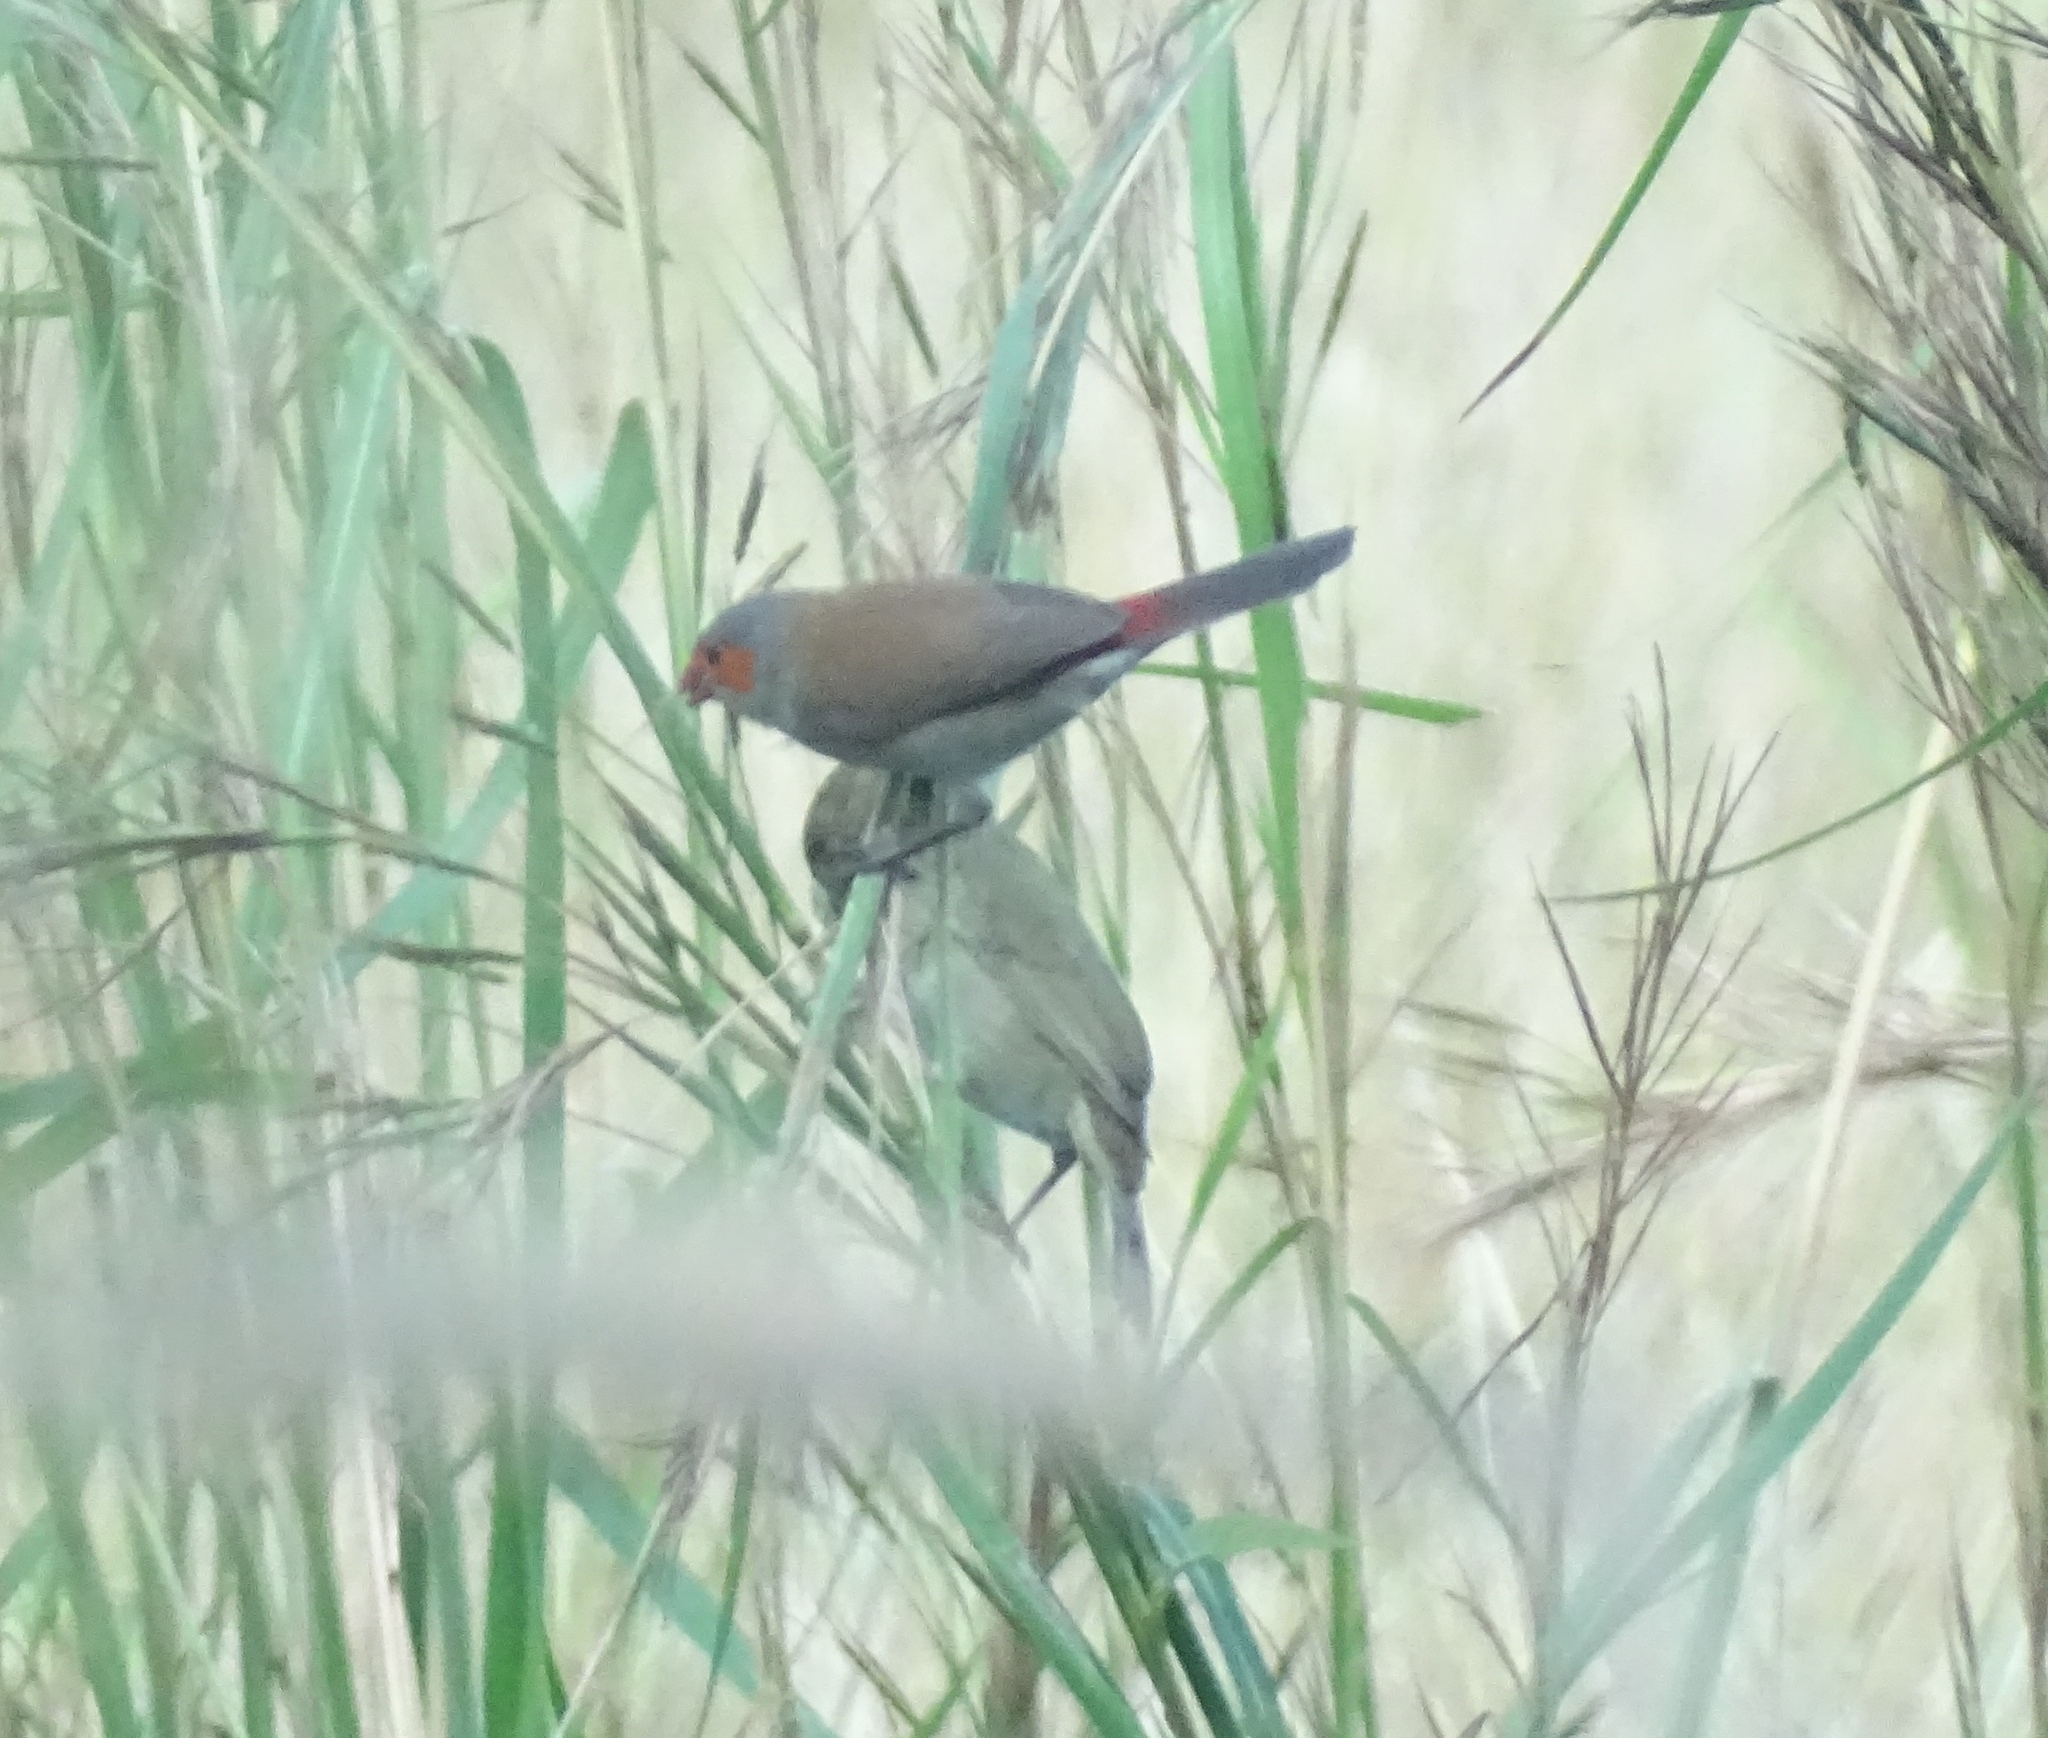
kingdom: Animalia
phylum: Chordata
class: Aves
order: Passeriformes
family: Estrildidae
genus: Estrilda
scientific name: Estrilda melpoda
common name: Orange-cheeked waxbill
